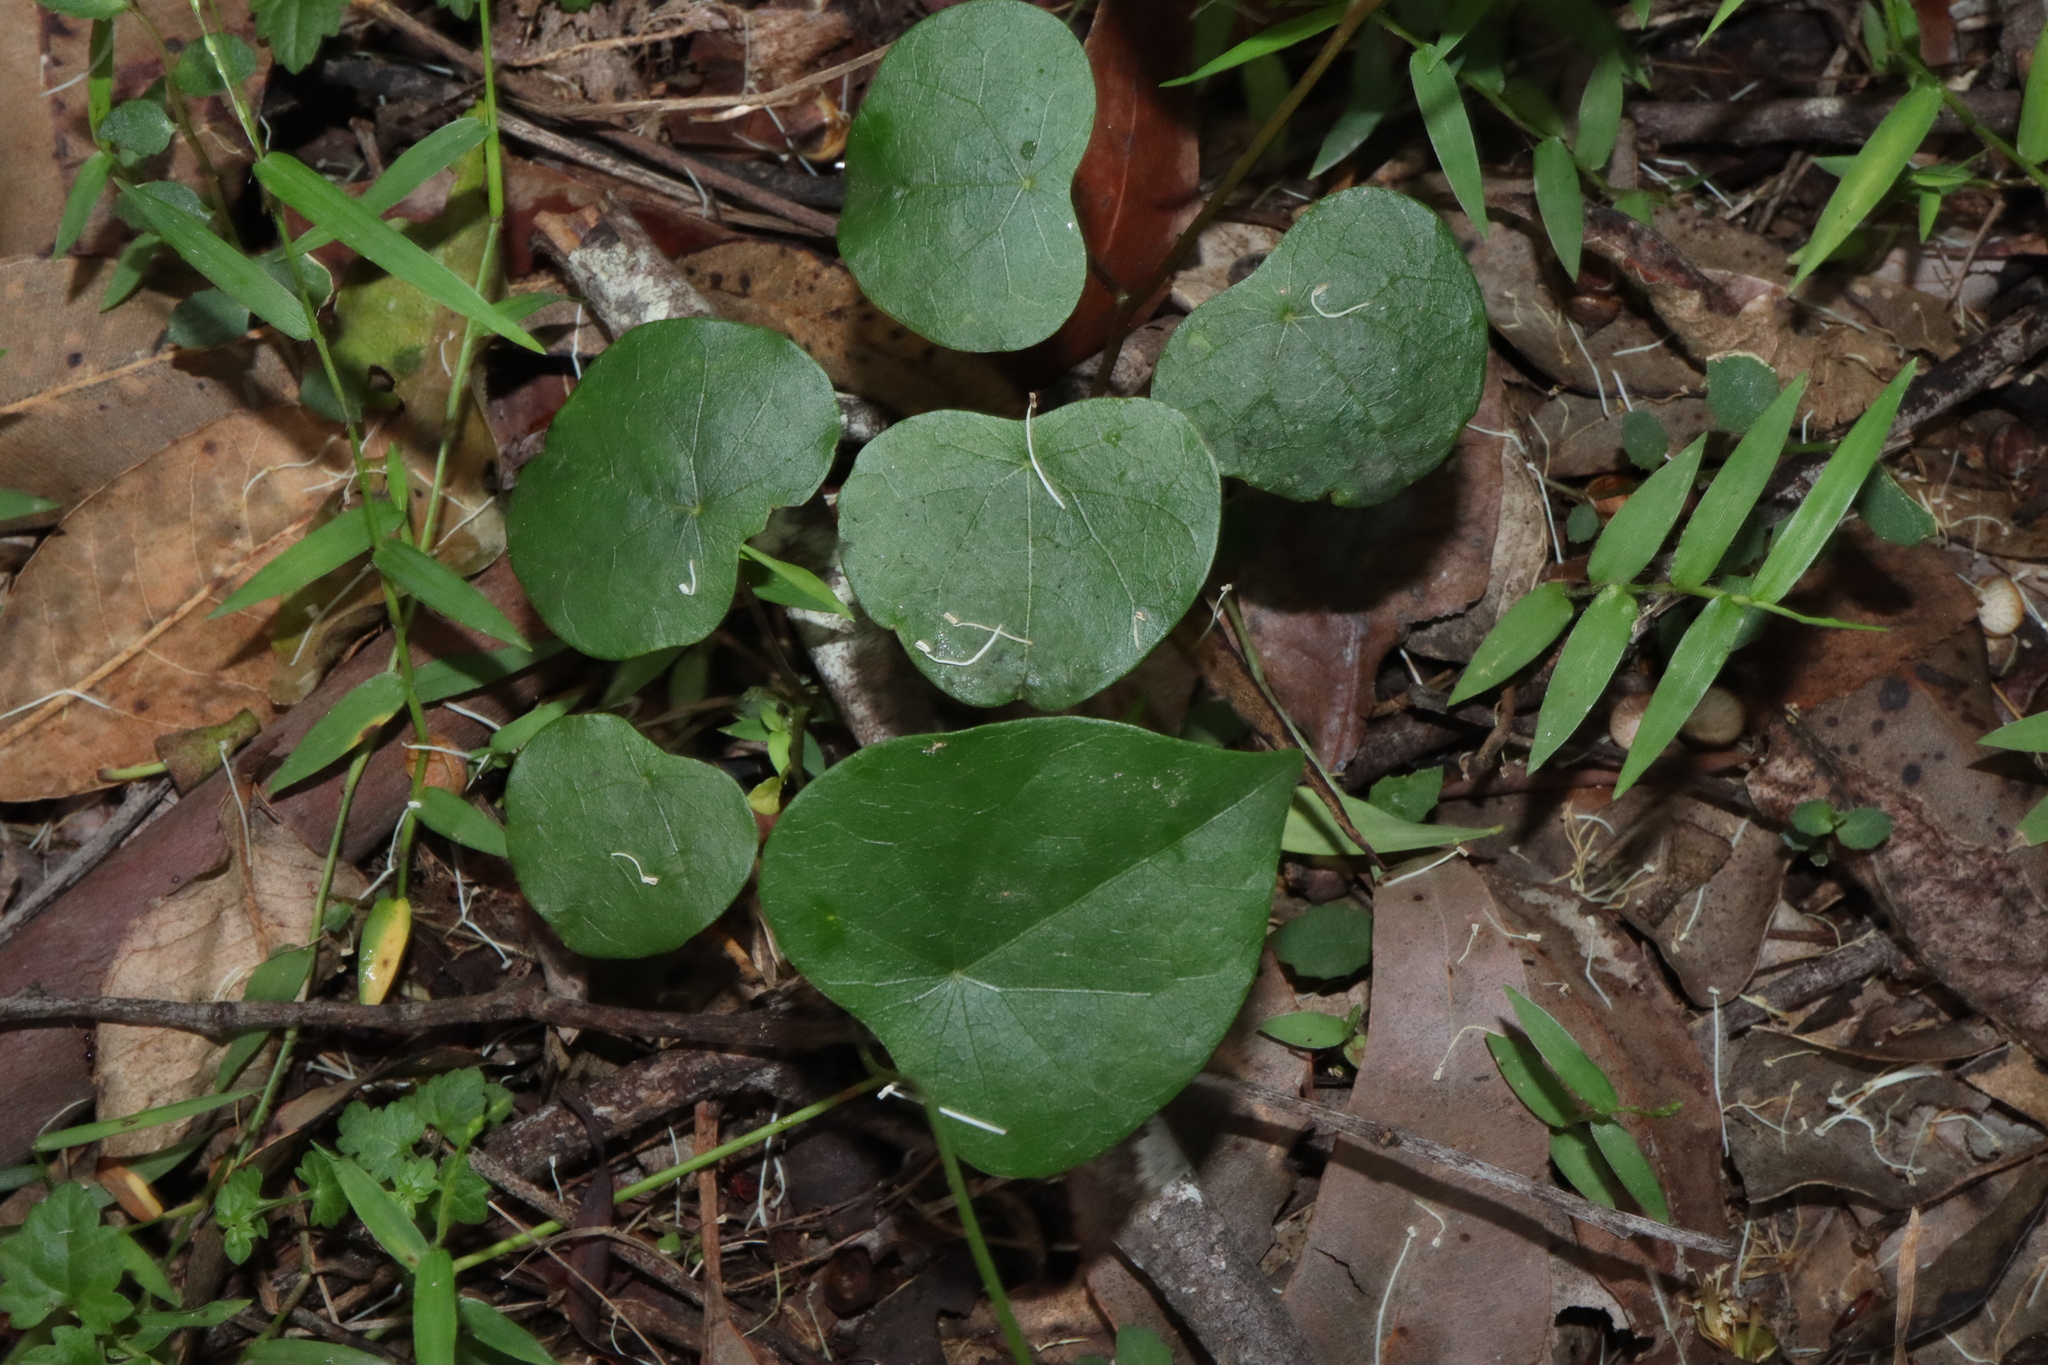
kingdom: Plantae
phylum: Tracheophyta
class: Magnoliopsida
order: Ranunculales
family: Menispermaceae
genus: Stephania
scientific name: Stephania japonica
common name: Snake vine
